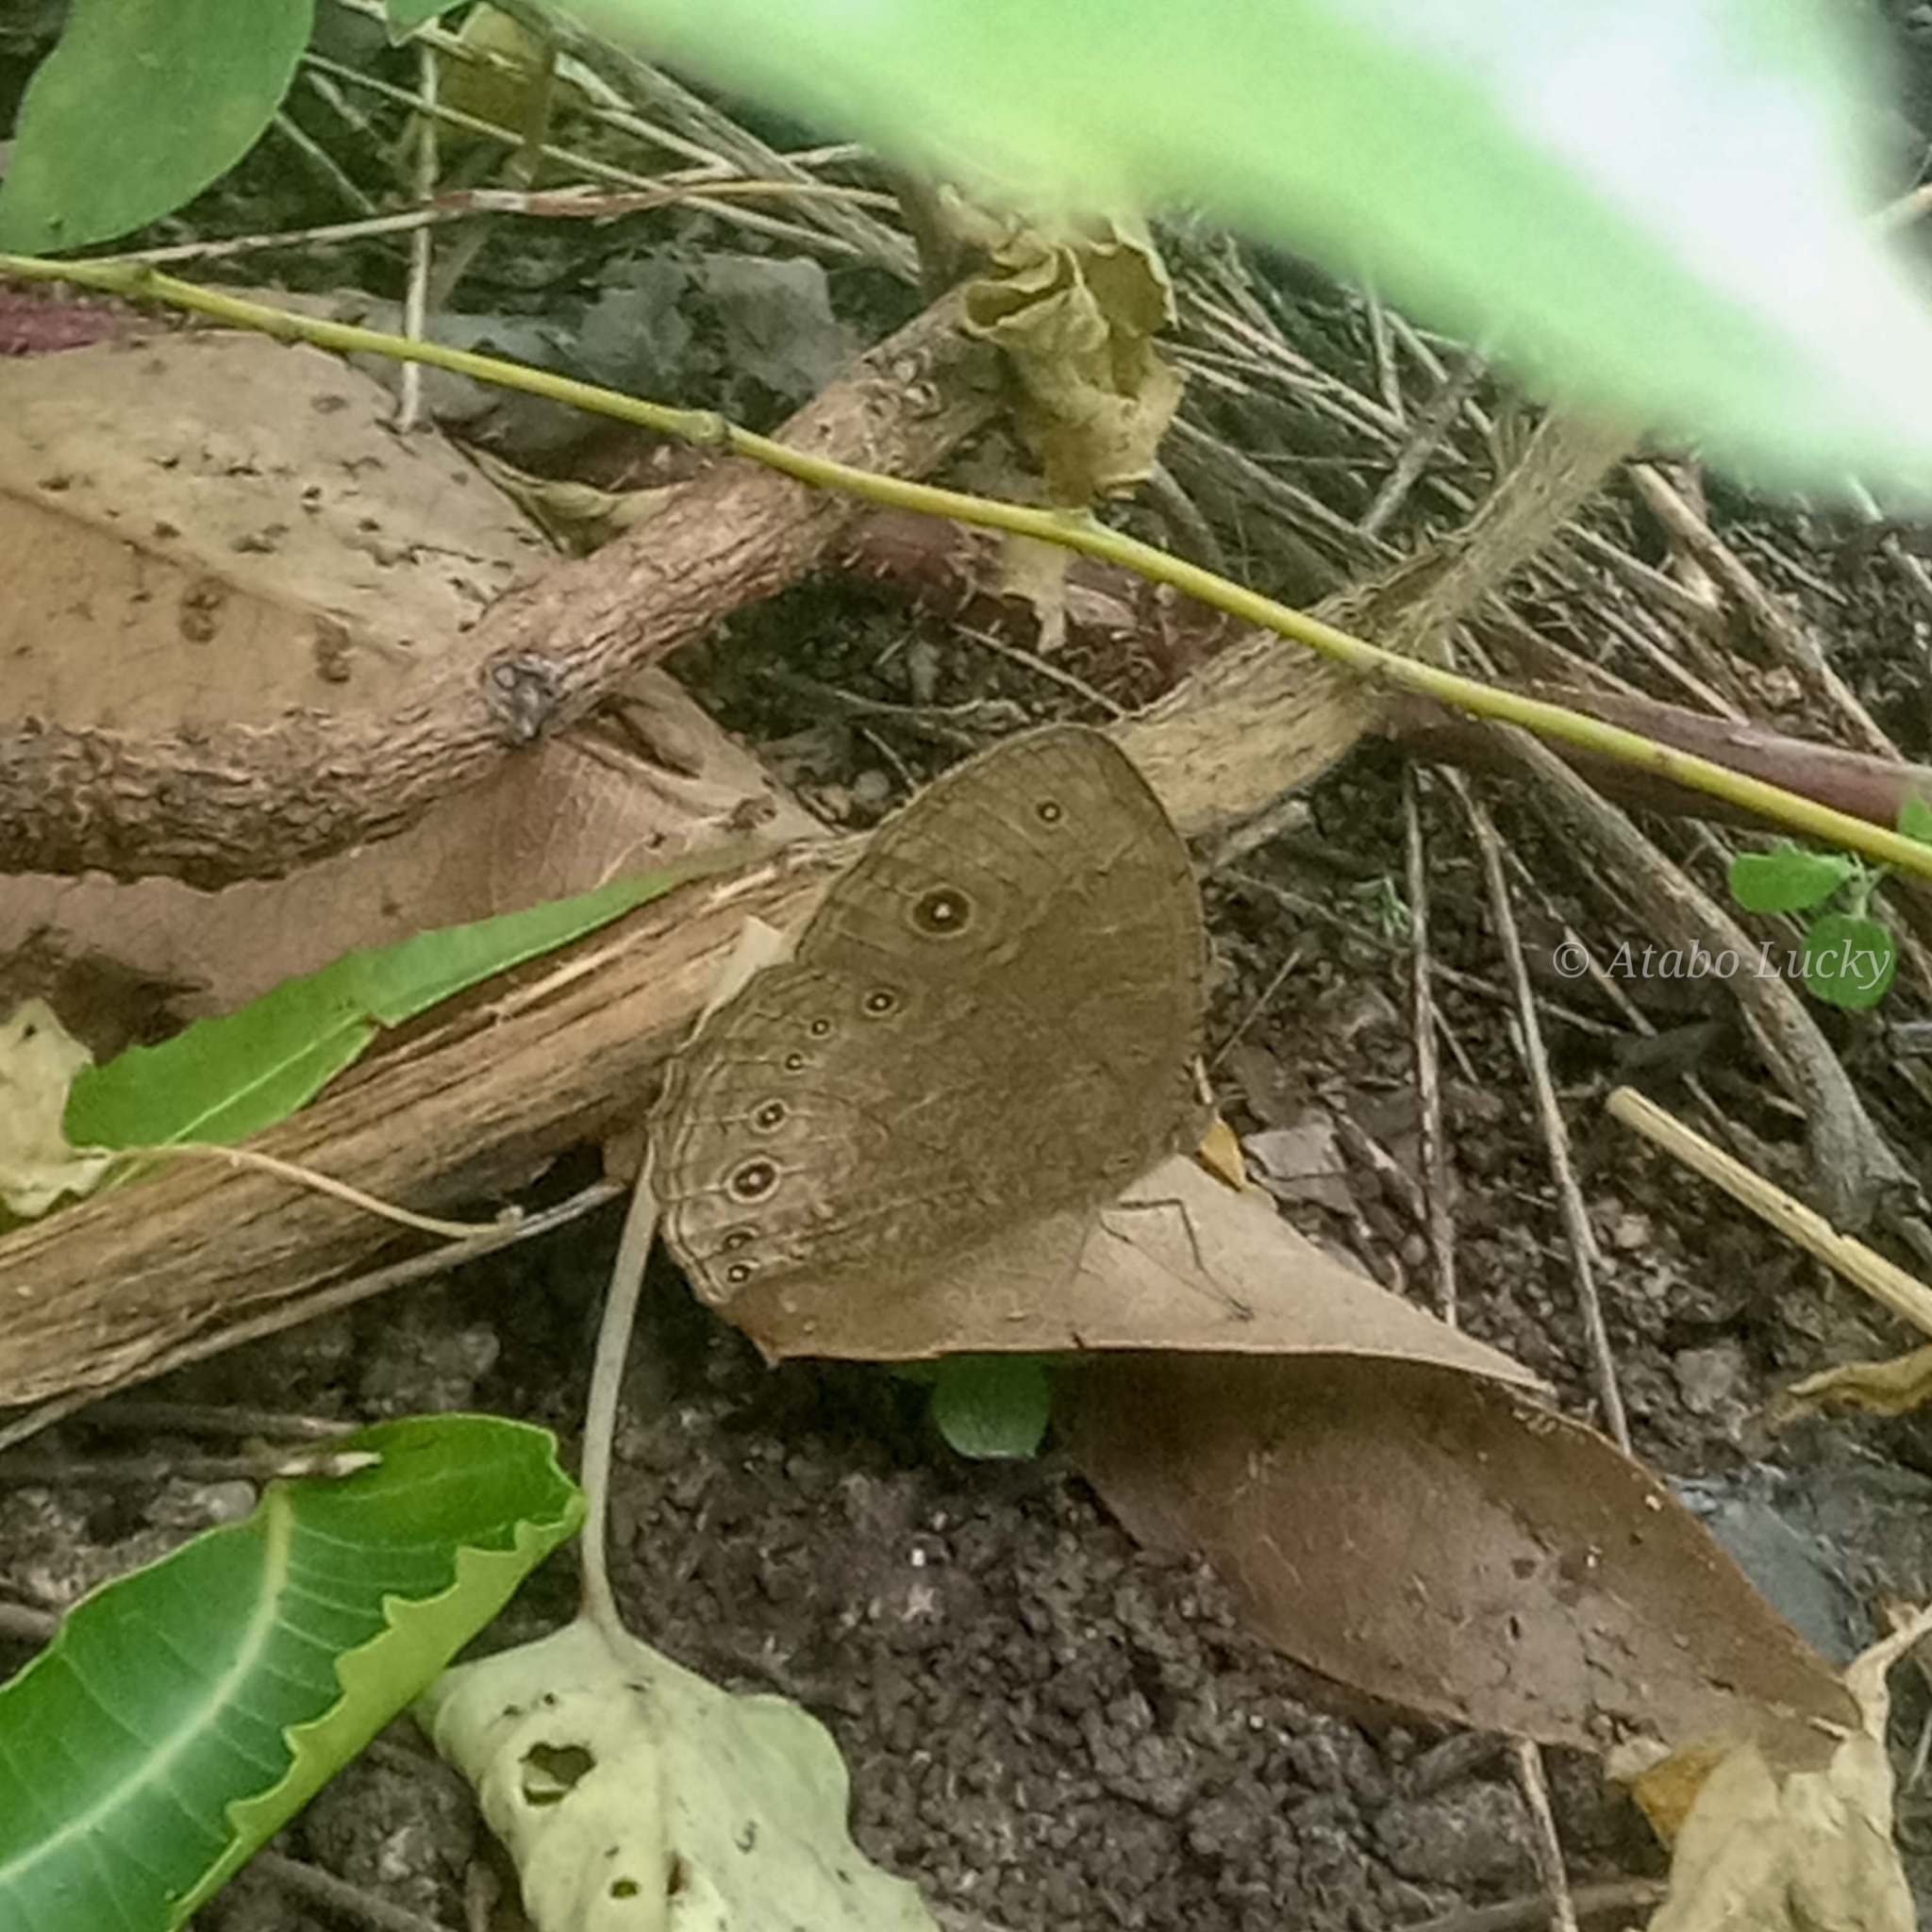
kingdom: Animalia
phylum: Arthropoda
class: Insecta
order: Lepidoptera
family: Nymphalidae
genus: Mycalesis
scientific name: Mycalesis vulgaris
